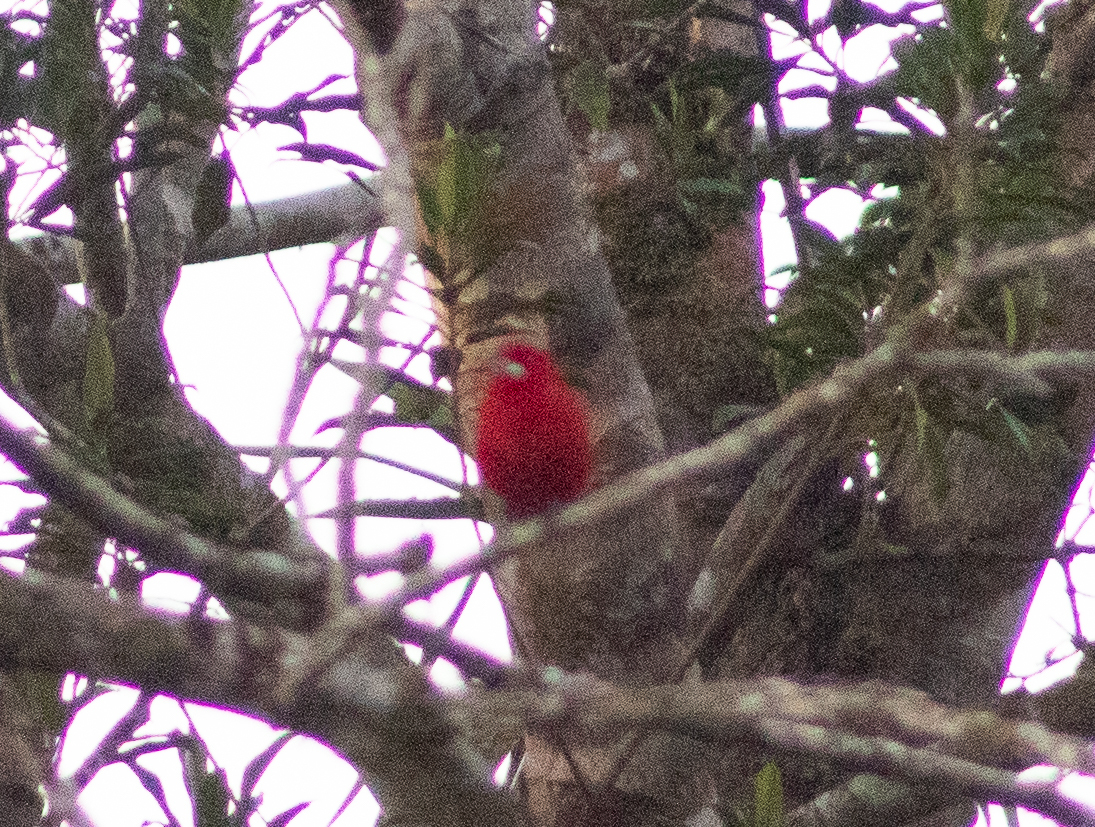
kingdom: Animalia
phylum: Chordata
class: Aves
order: Passeriformes
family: Thraupidae
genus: Ramphocelus
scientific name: Ramphocelus bresilia
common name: Brazilian tanager
